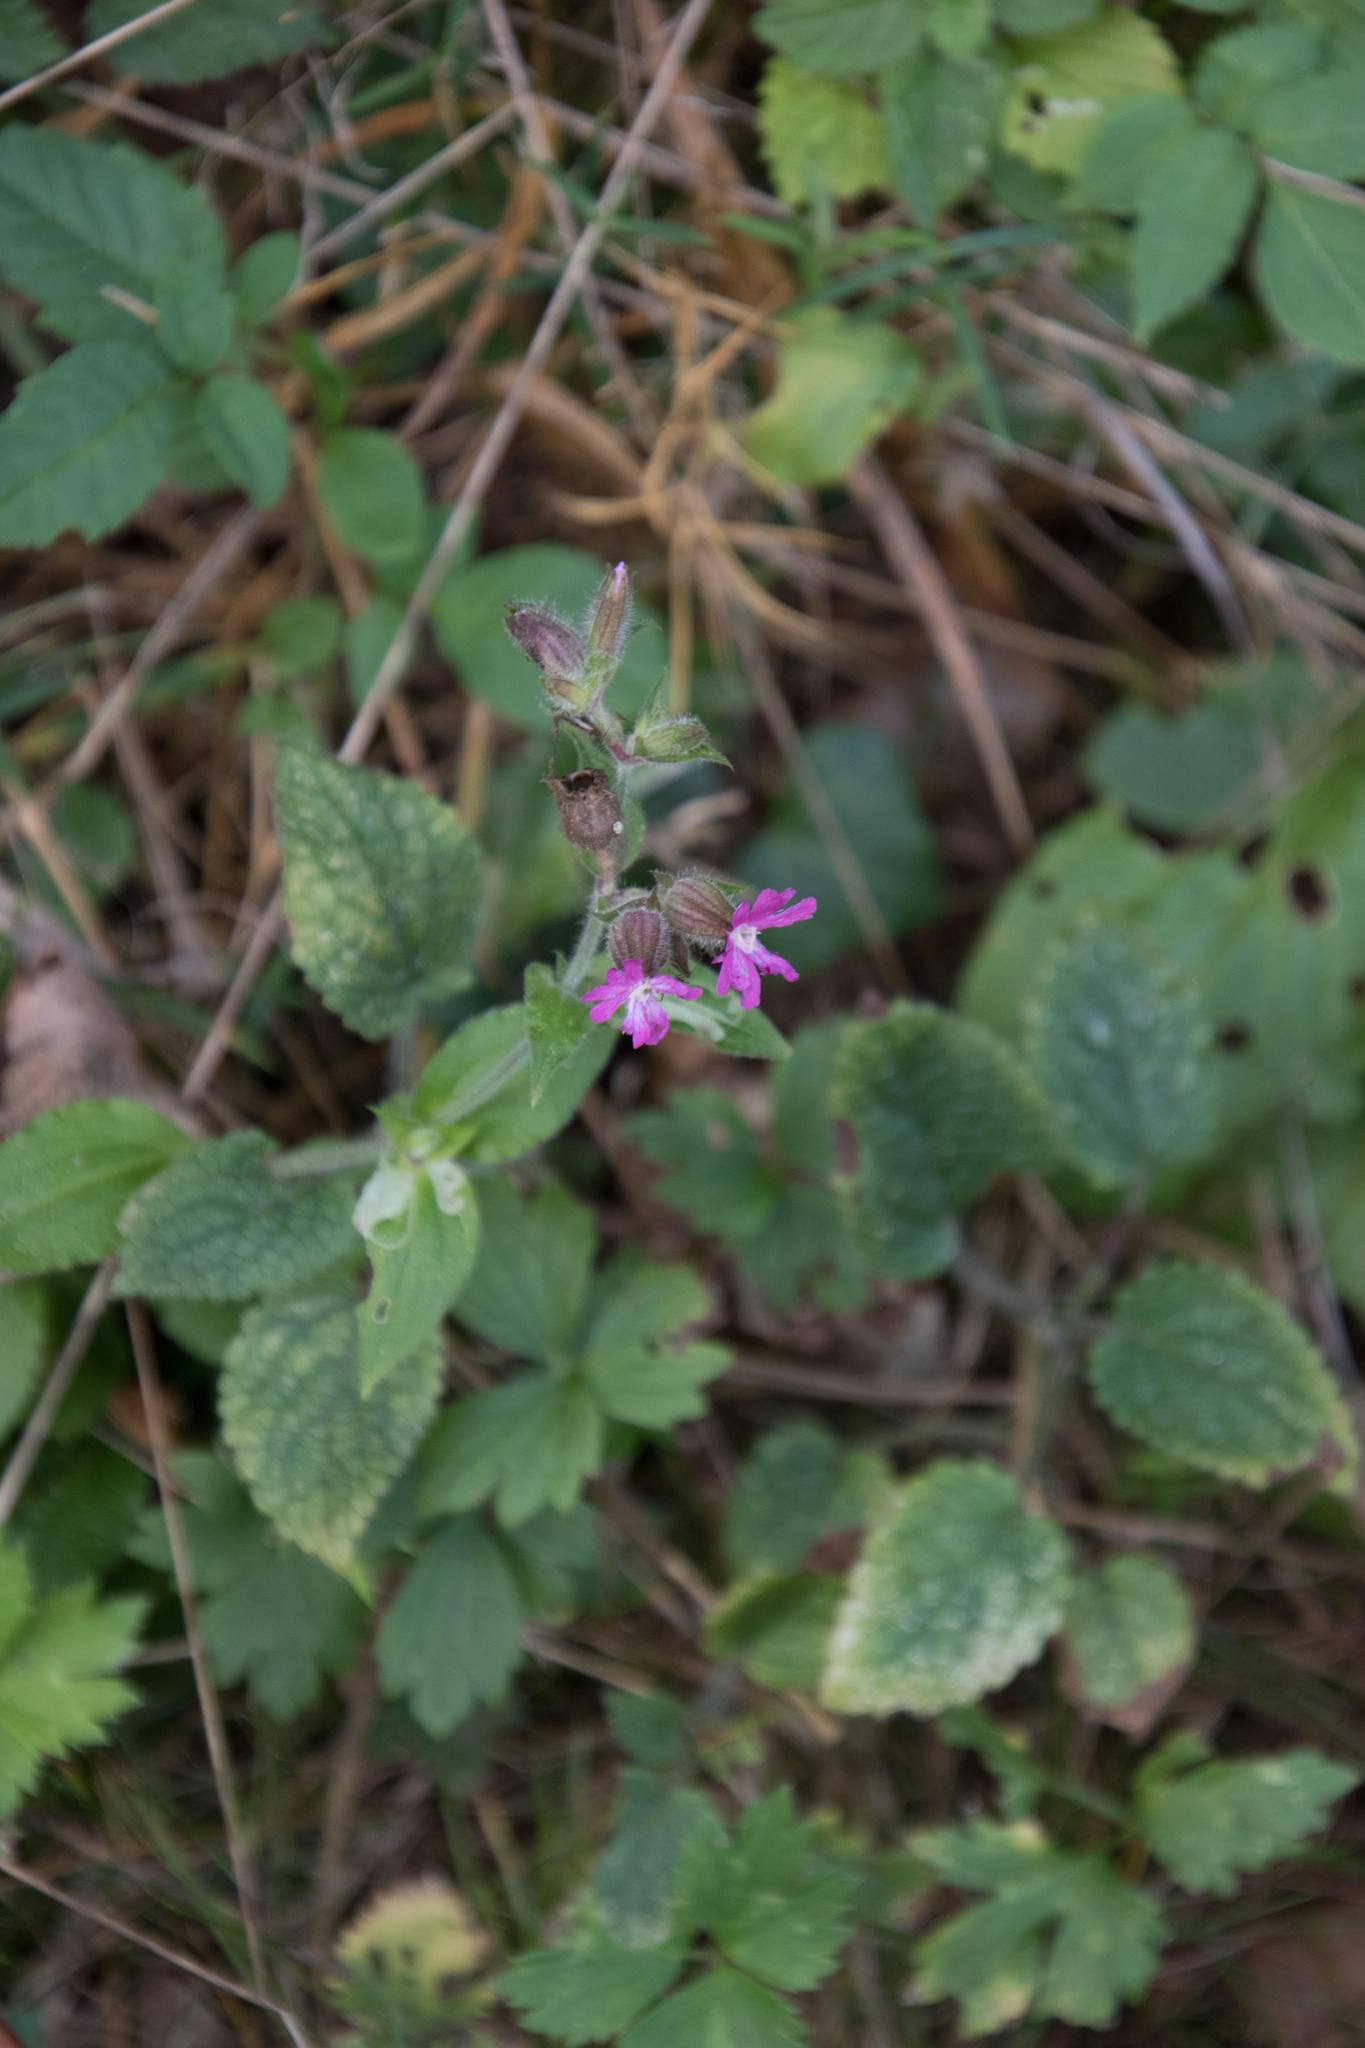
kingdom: Plantae
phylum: Tracheophyta
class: Magnoliopsida
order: Caryophyllales
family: Caryophyllaceae
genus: Silene
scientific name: Silene dioica
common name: Red campion
